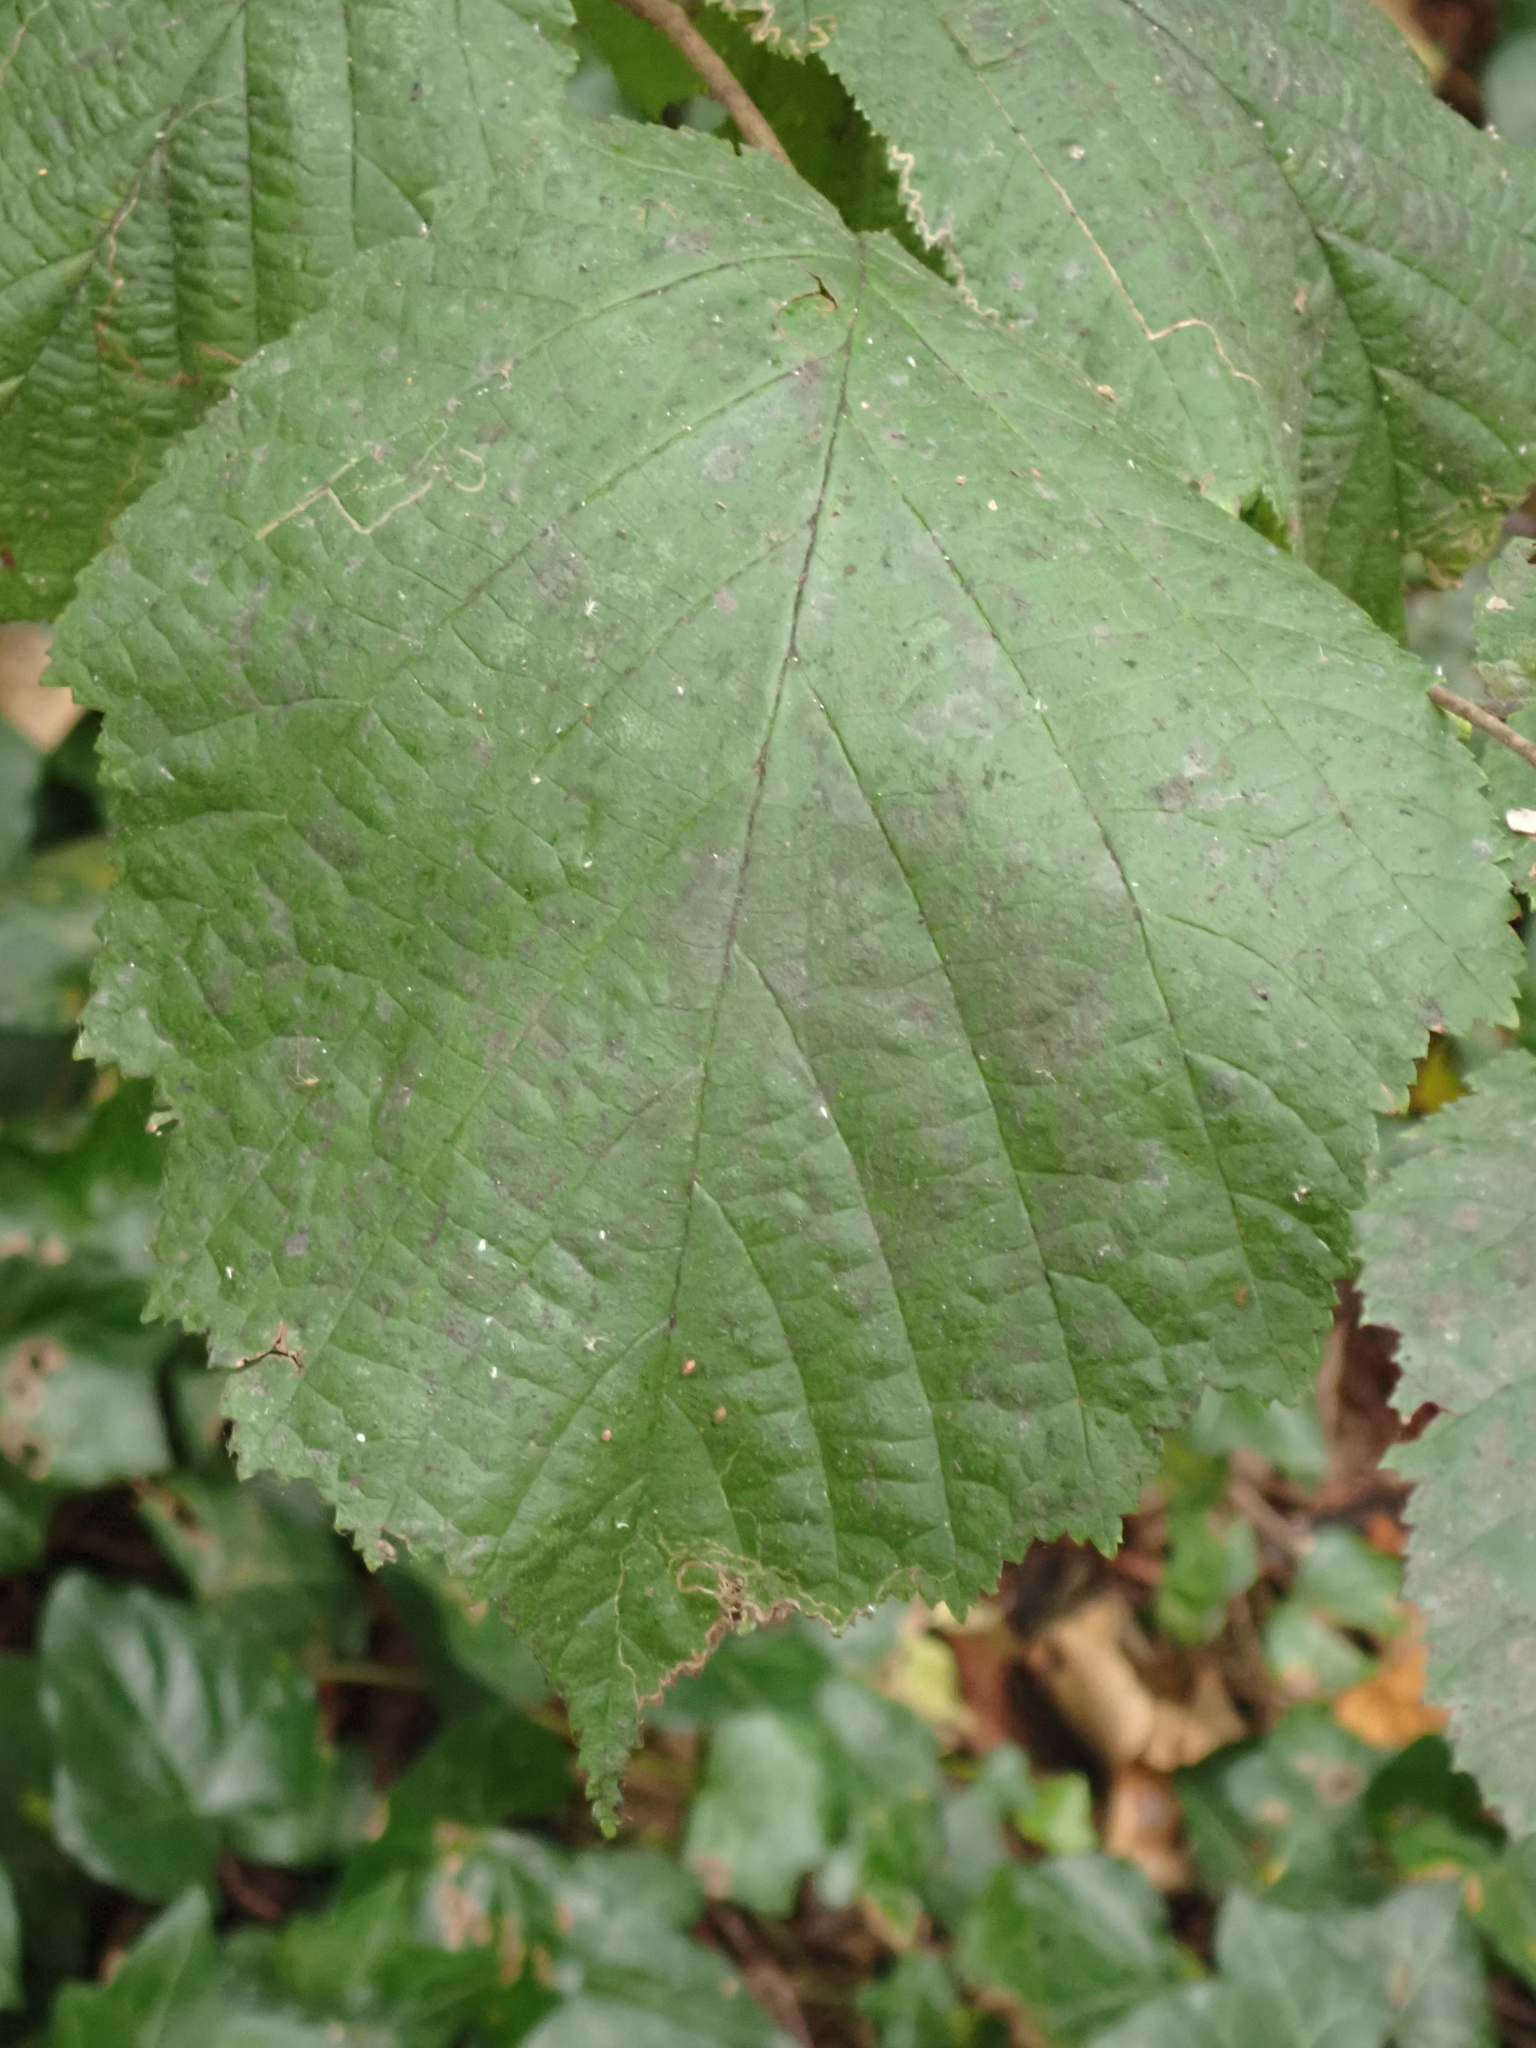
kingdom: Plantae
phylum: Tracheophyta
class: Magnoliopsida
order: Fagales
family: Betulaceae
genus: Corylus
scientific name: Corylus avellana
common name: European hazel
